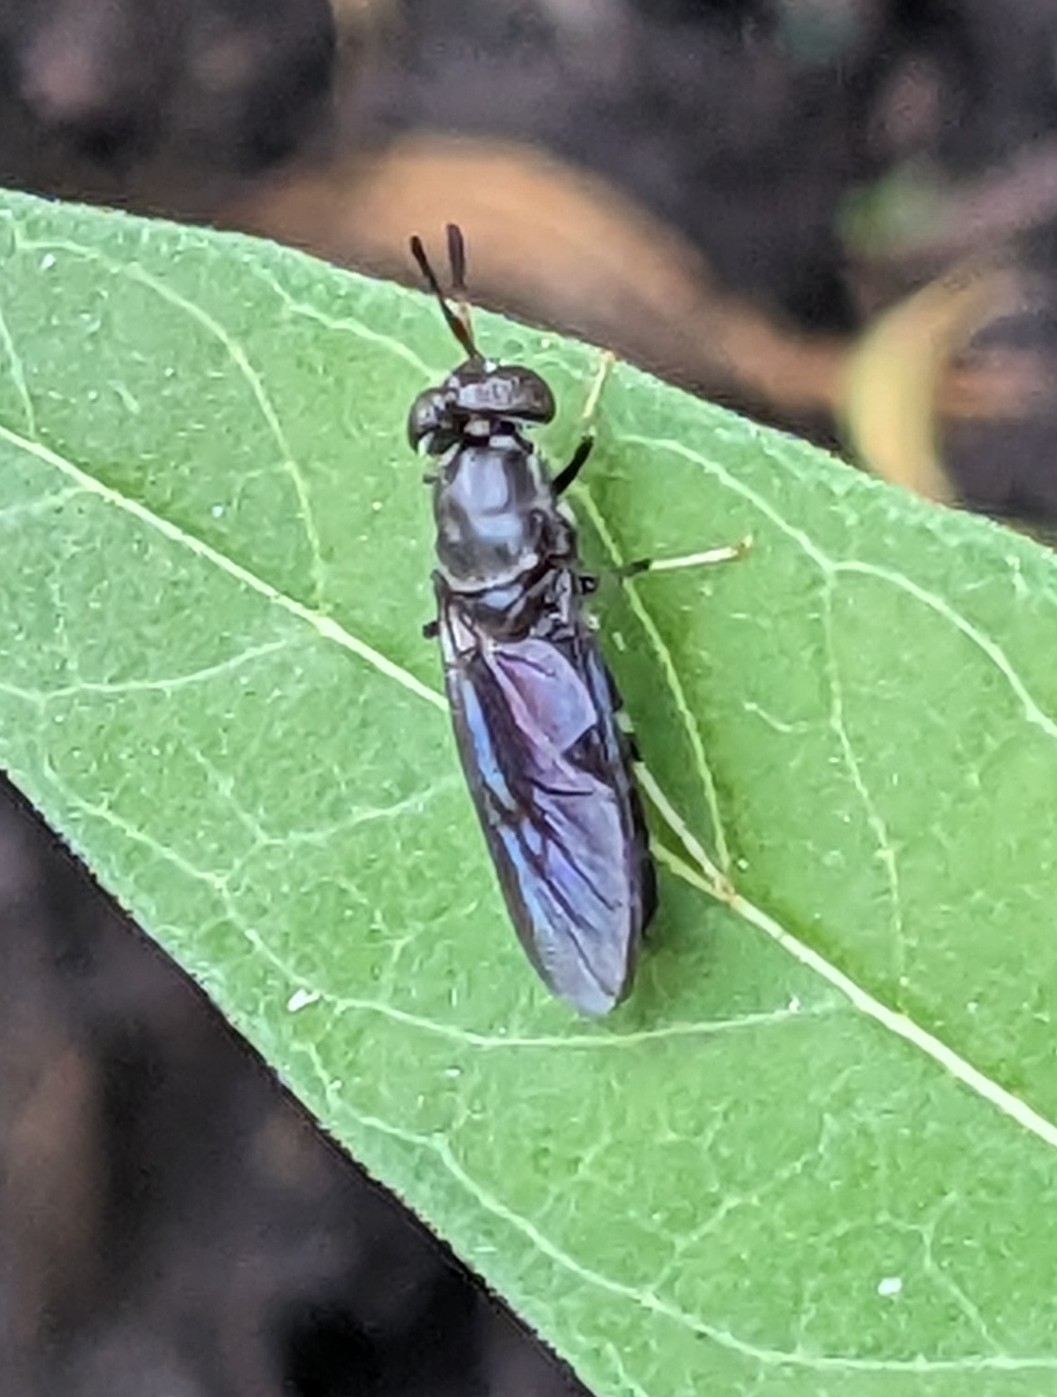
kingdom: Animalia
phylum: Arthropoda
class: Insecta
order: Diptera
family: Stratiomyidae
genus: Hermetia
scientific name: Hermetia illucens
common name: Black soldier fly
